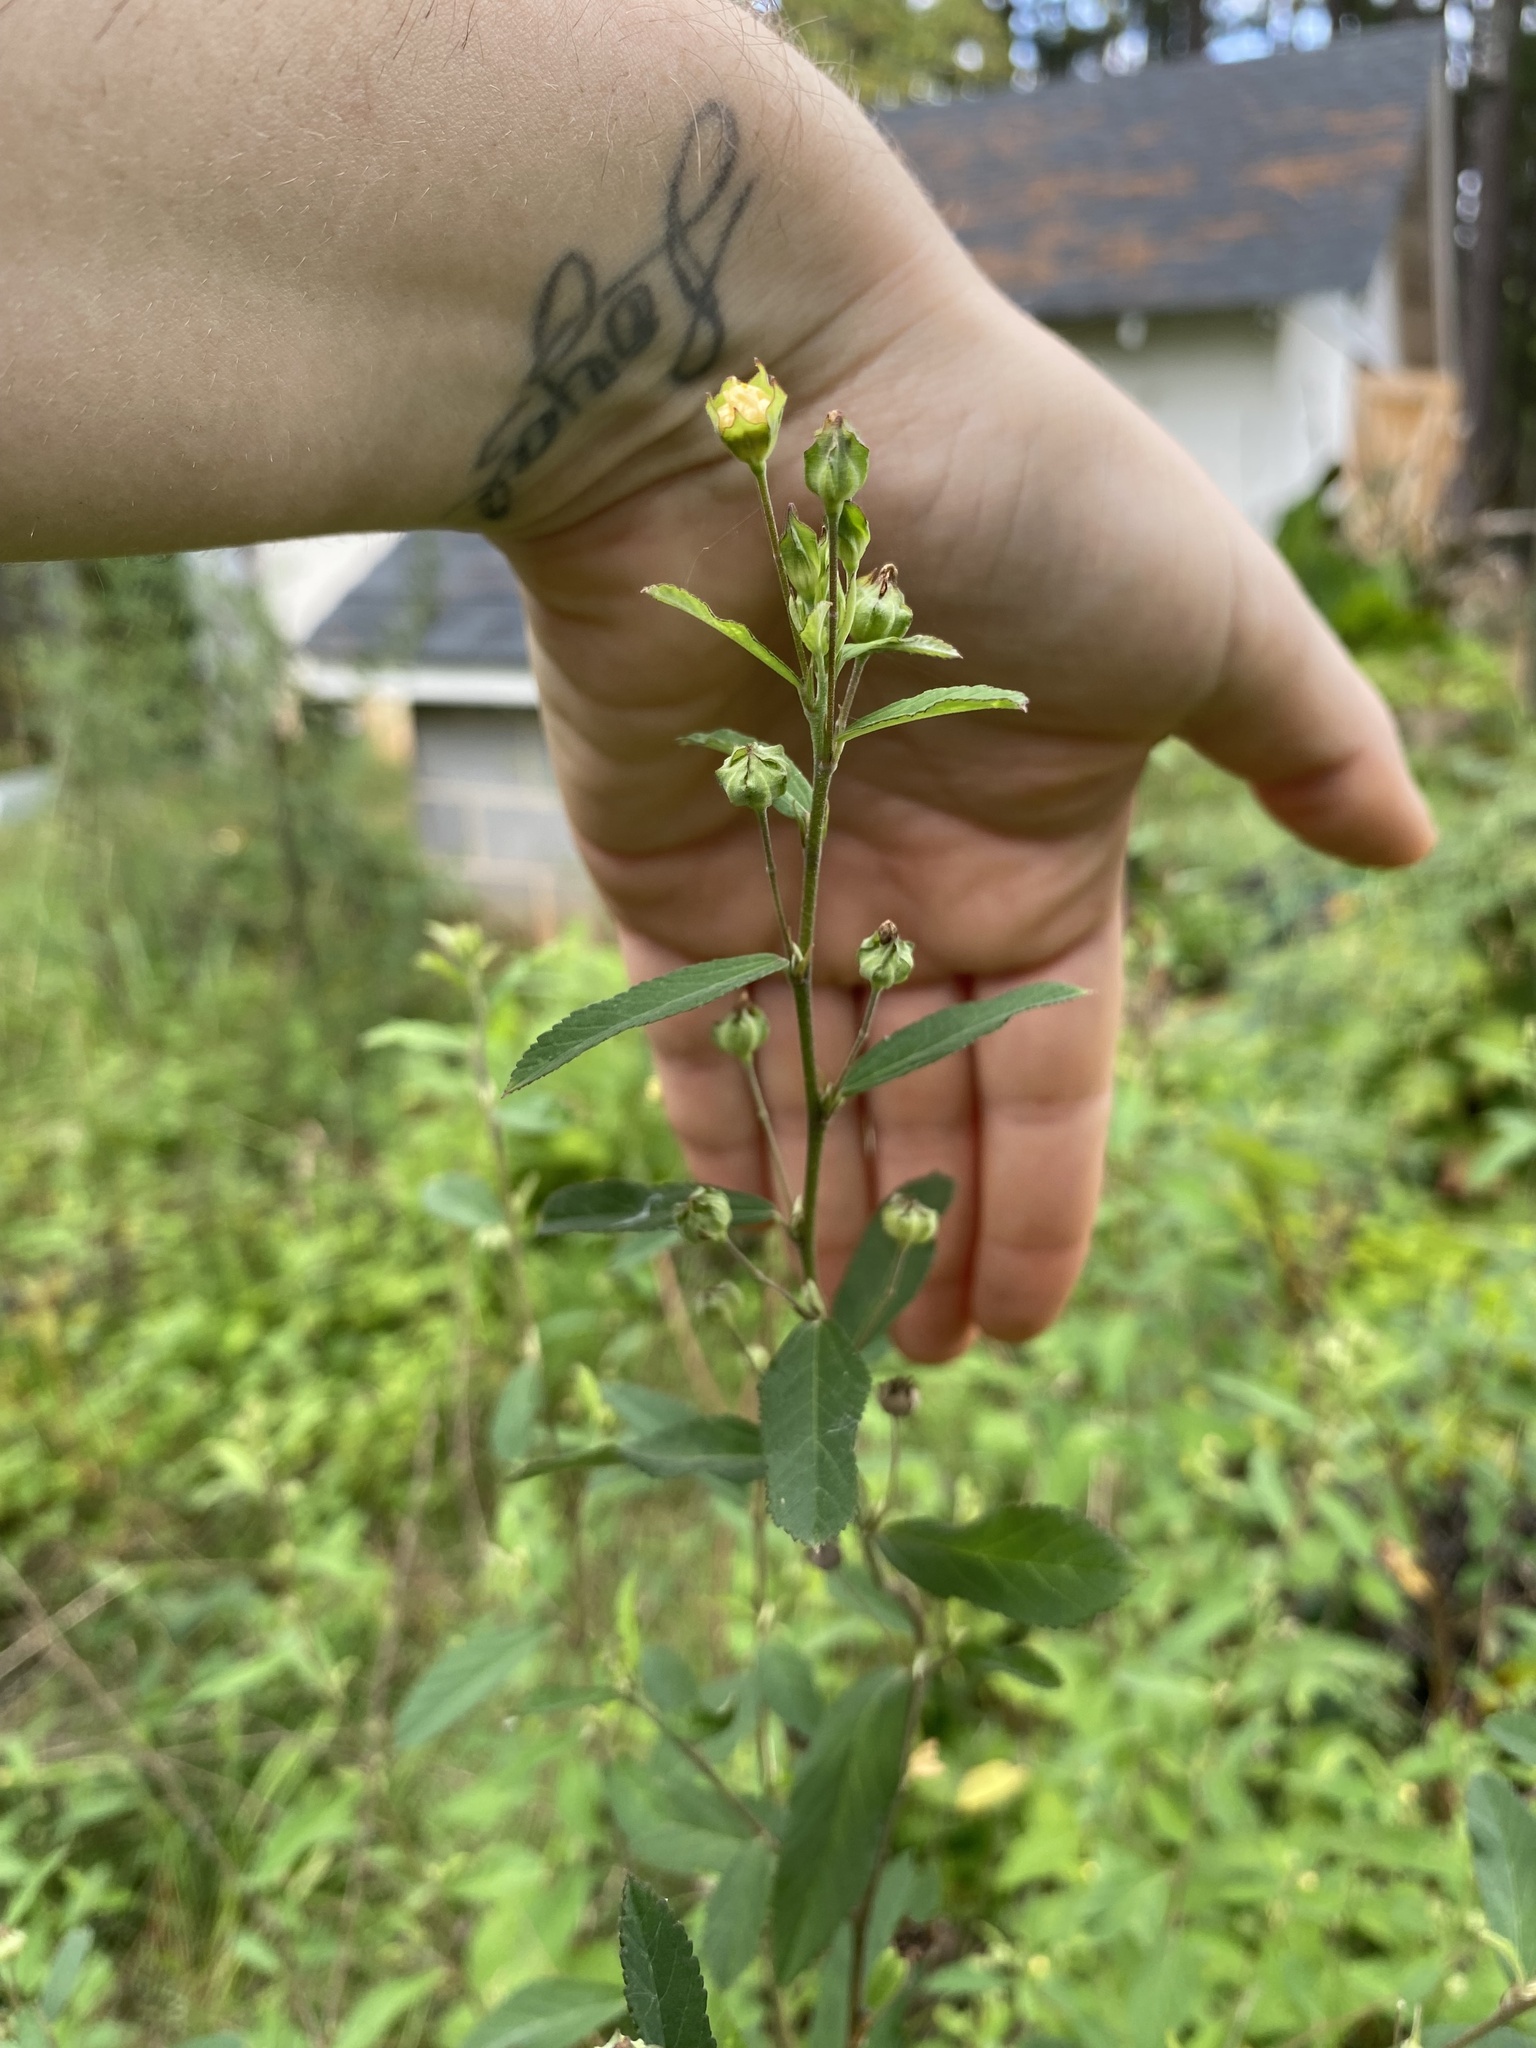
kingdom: Plantae
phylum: Tracheophyta
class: Magnoliopsida
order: Malvales
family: Malvaceae
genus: Sida
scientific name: Sida rhombifolia
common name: Queensland-hemp
